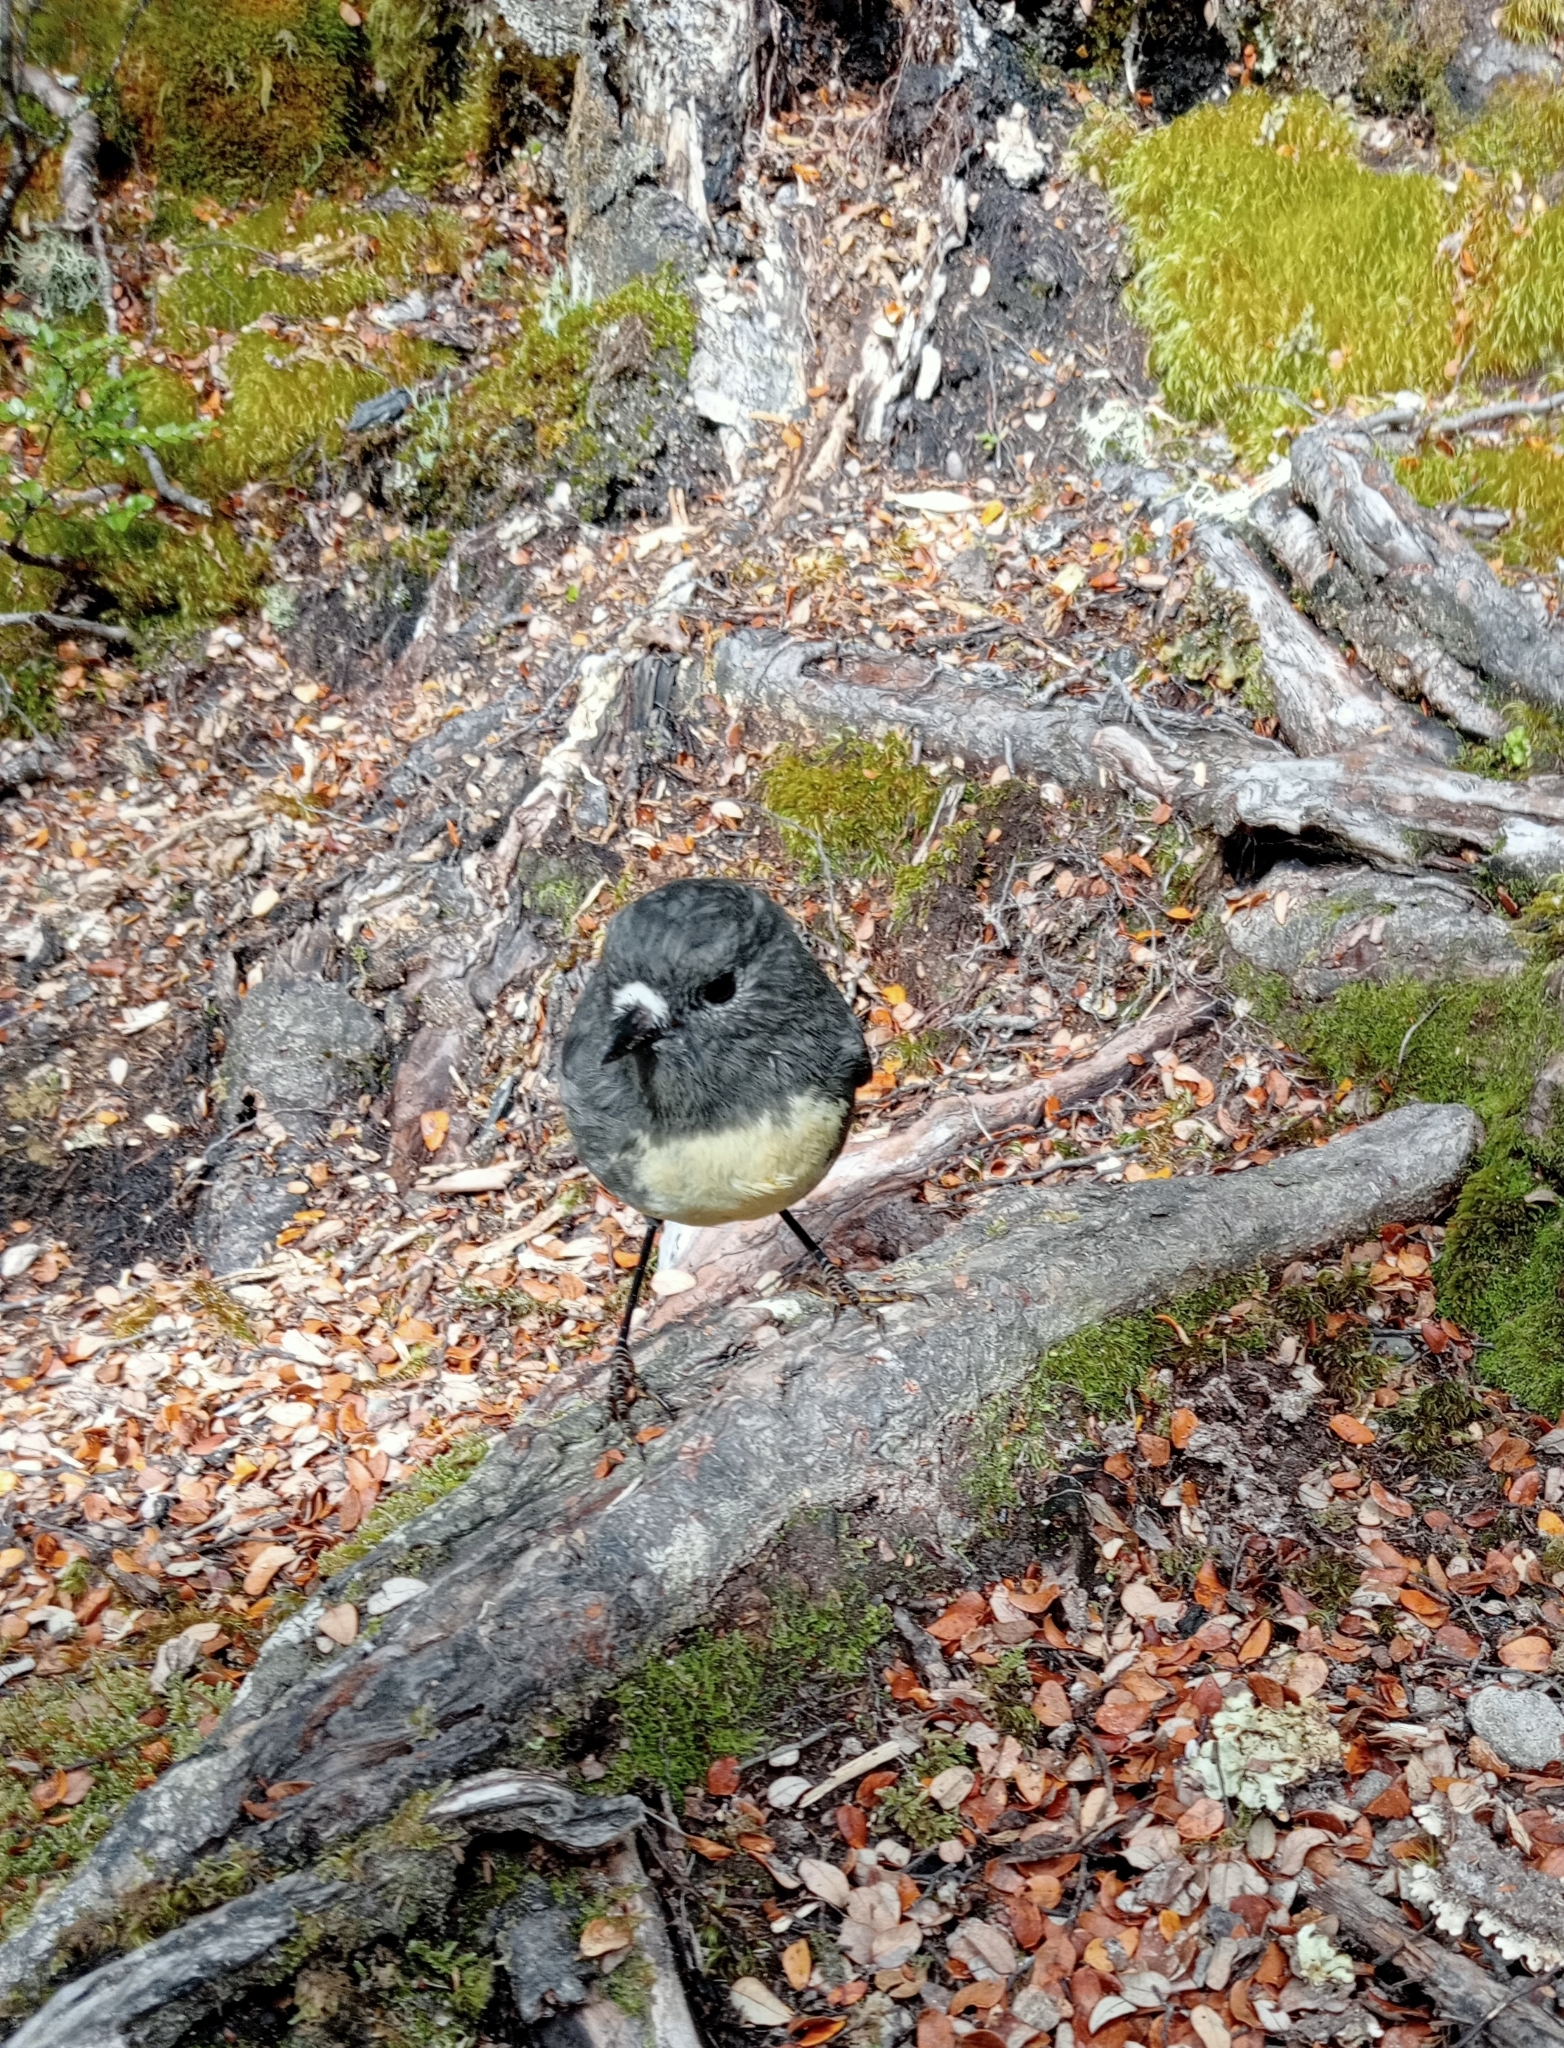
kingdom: Animalia
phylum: Chordata
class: Aves
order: Passeriformes
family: Petroicidae
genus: Petroica
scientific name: Petroica australis
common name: New zealand robin
